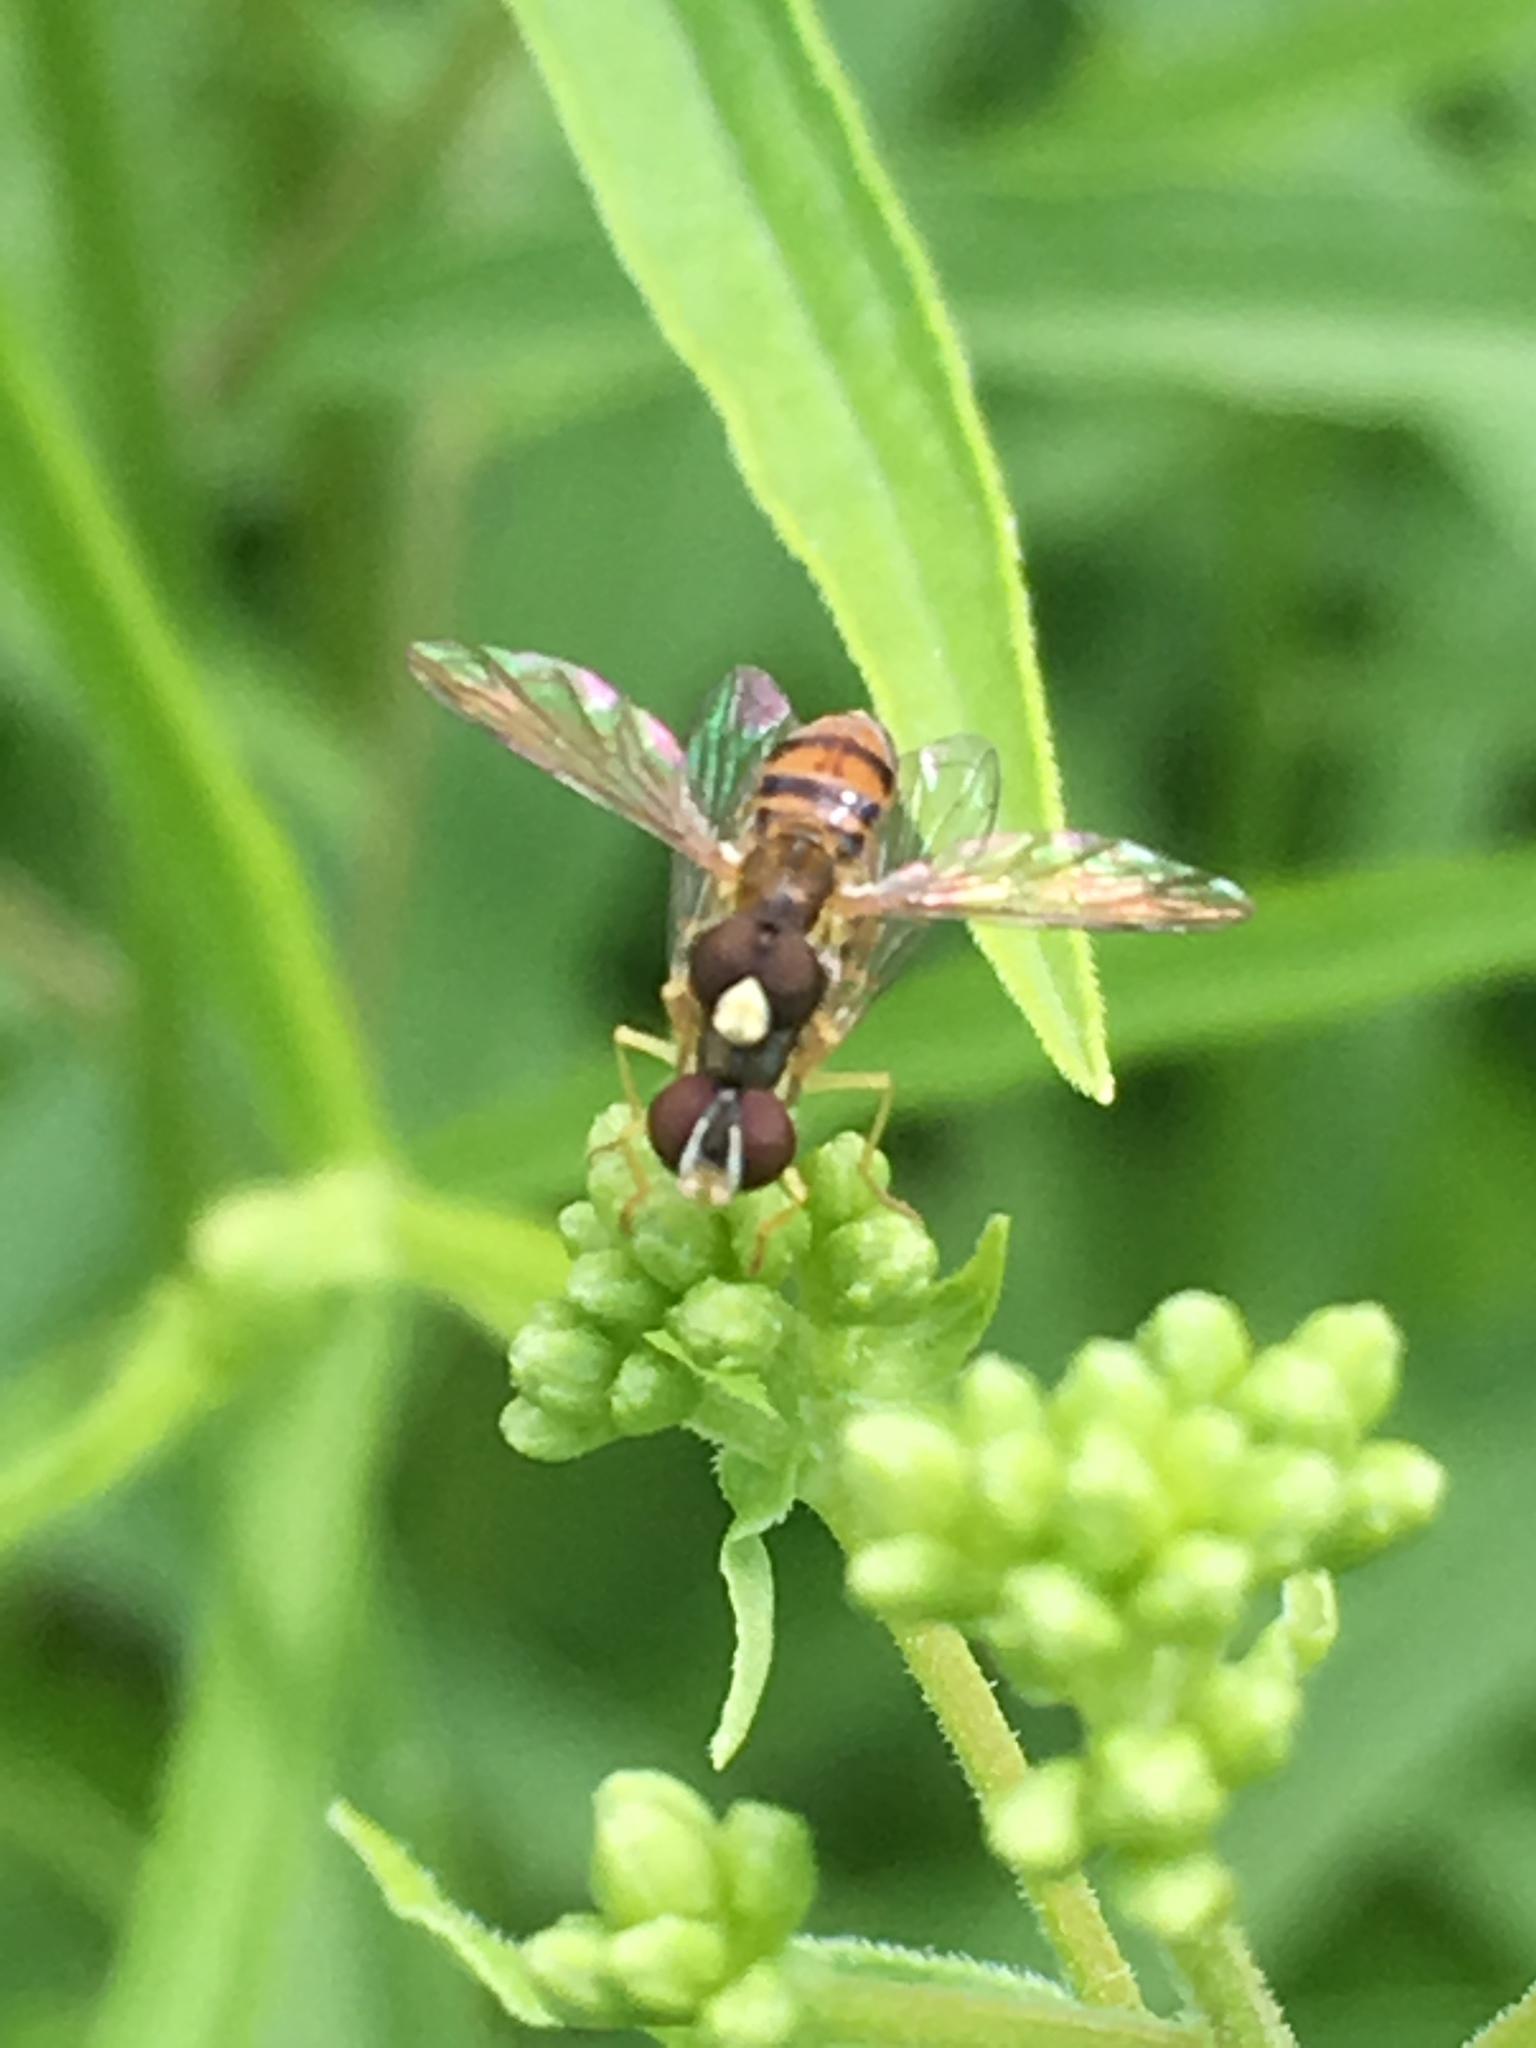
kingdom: Animalia
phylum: Arthropoda
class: Insecta
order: Diptera
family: Syrphidae
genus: Toxomerus
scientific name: Toxomerus marginatus
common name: Syrphid fly
